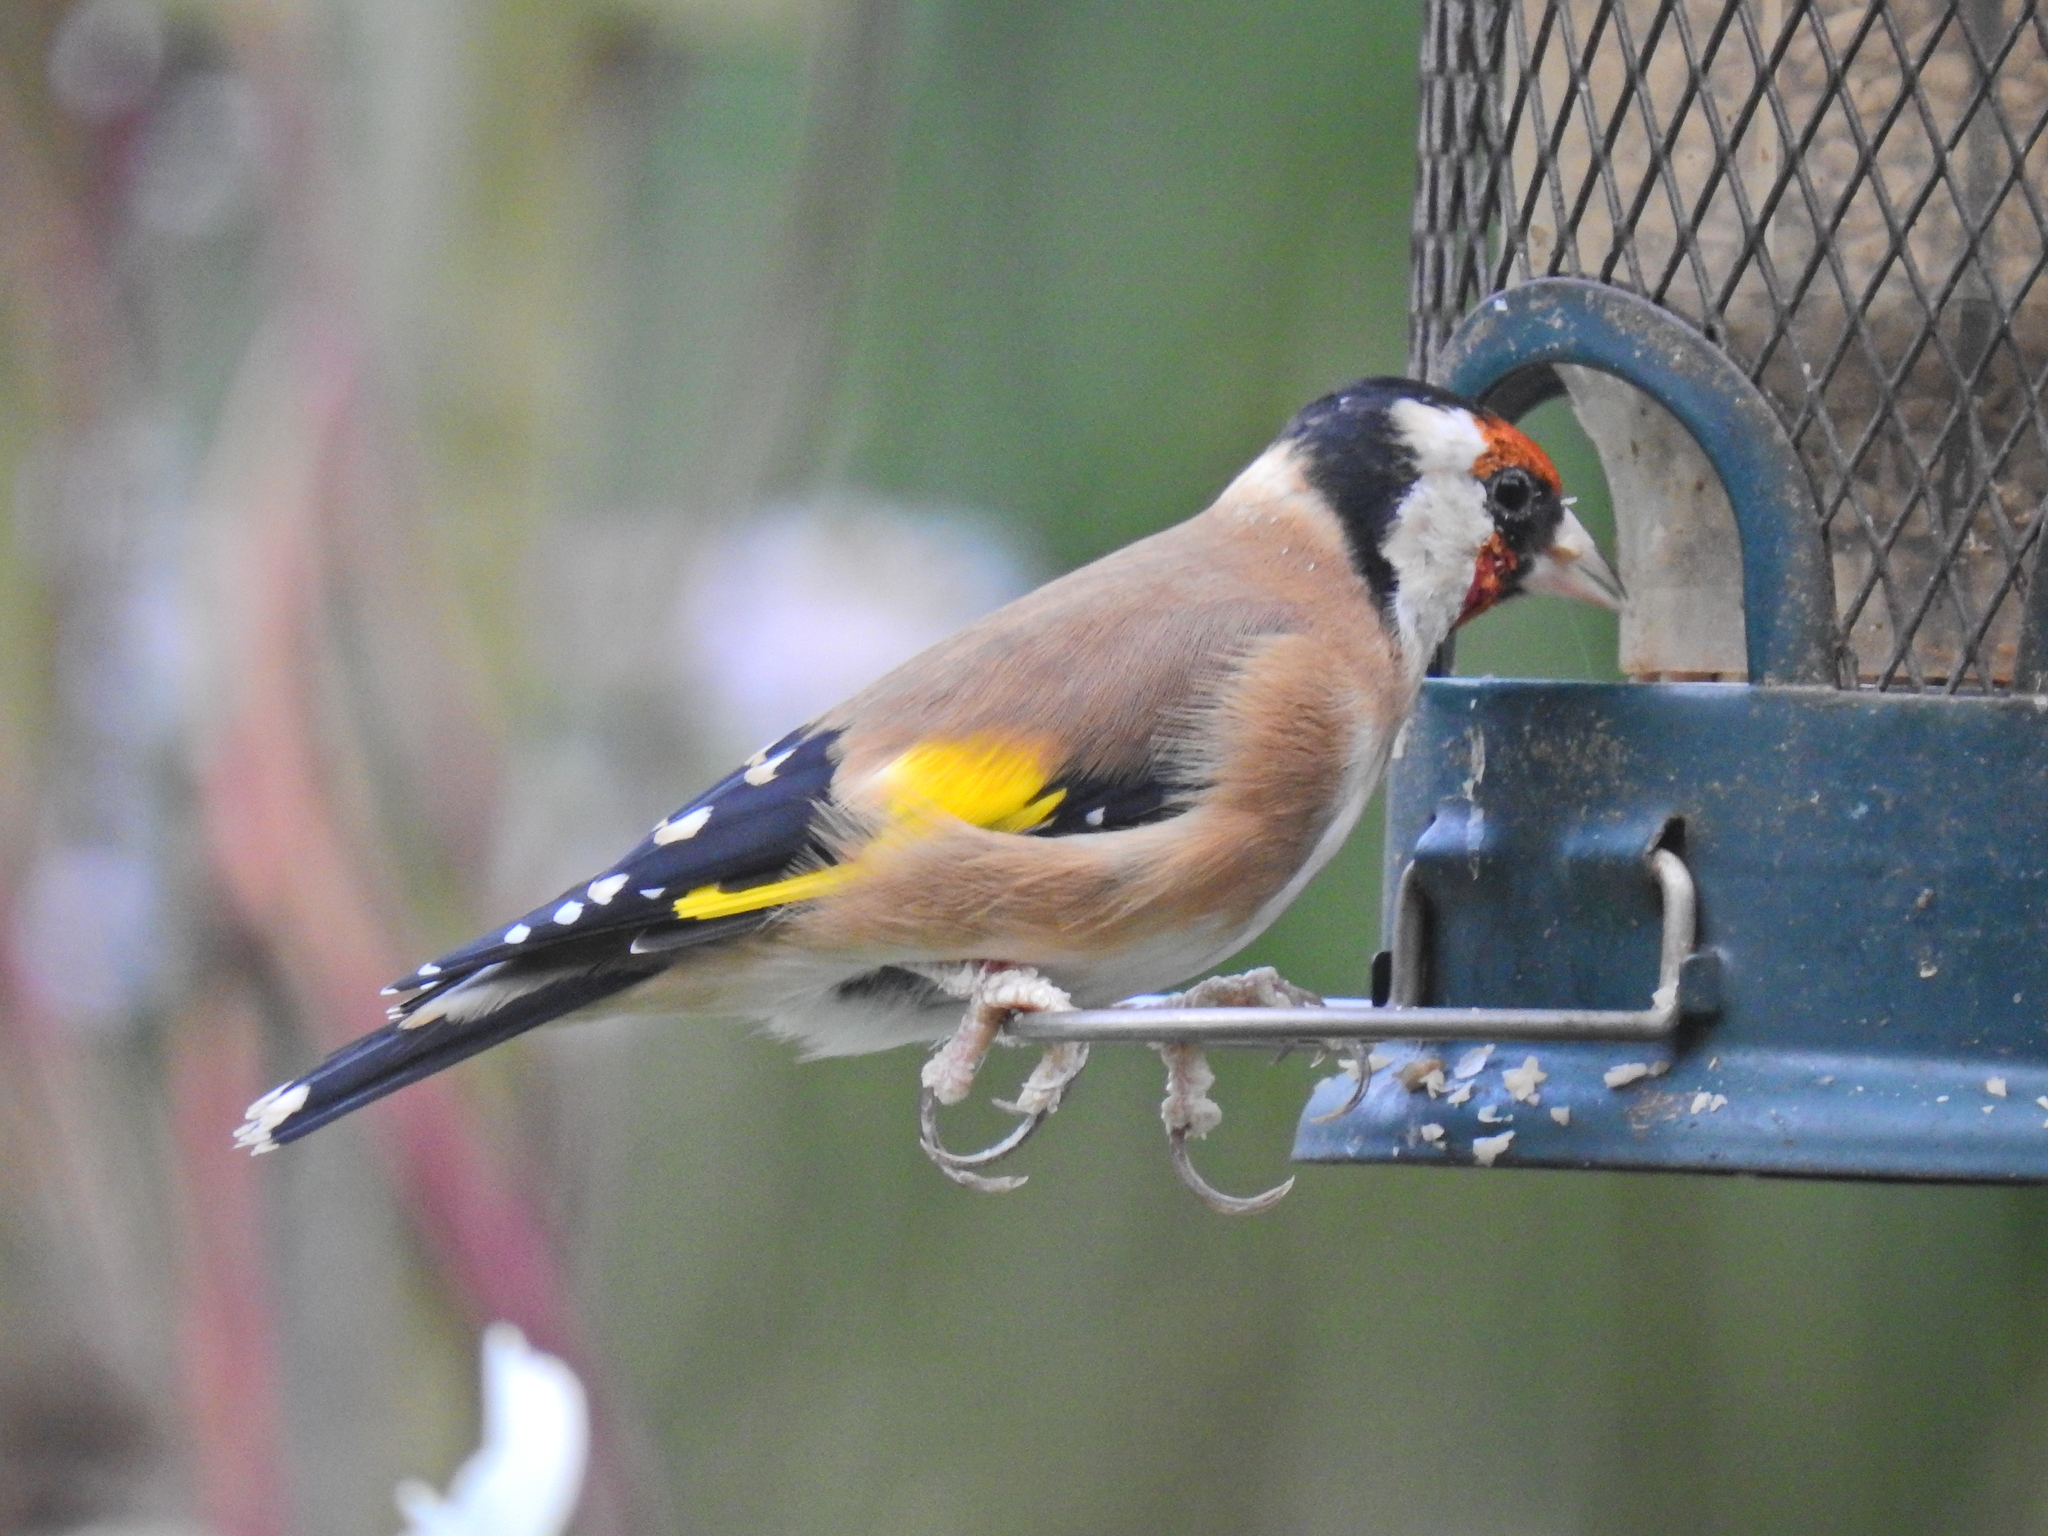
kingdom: Animalia
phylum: Chordata
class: Aves
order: Passeriformes
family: Fringillidae
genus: Carduelis
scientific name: Carduelis carduelis
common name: European goldfinch
